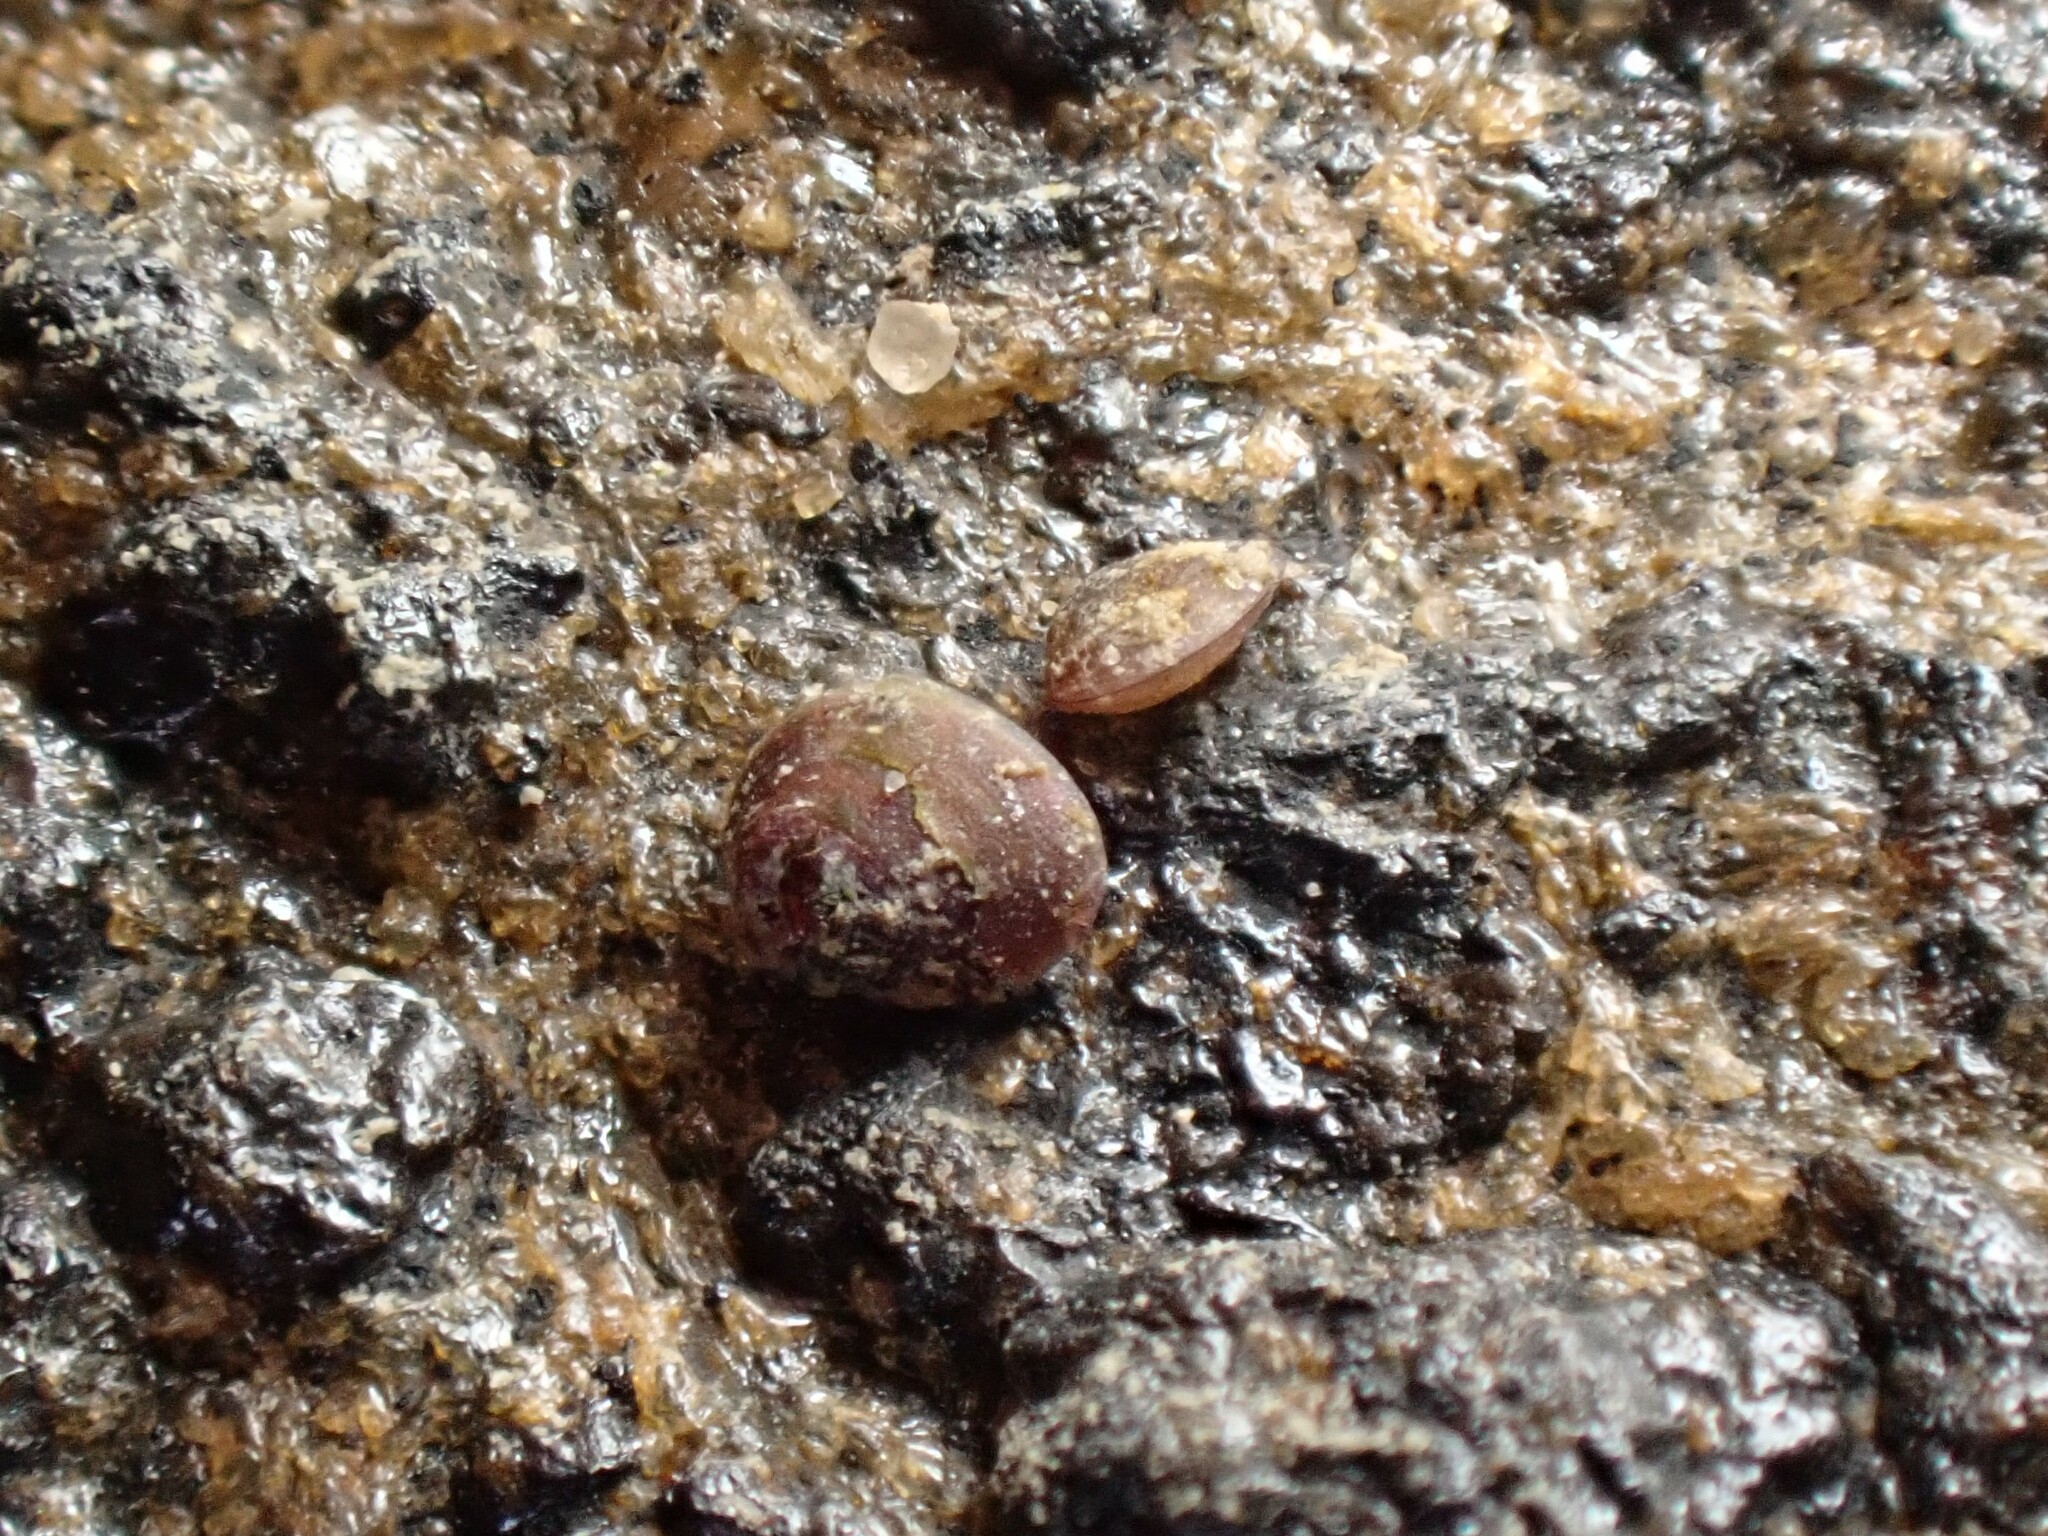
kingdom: Animalia
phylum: Mollusca
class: Bivalvia
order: Galeommatida
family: Lasaeidae
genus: Lasaea
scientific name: Lasaea hinemoa
